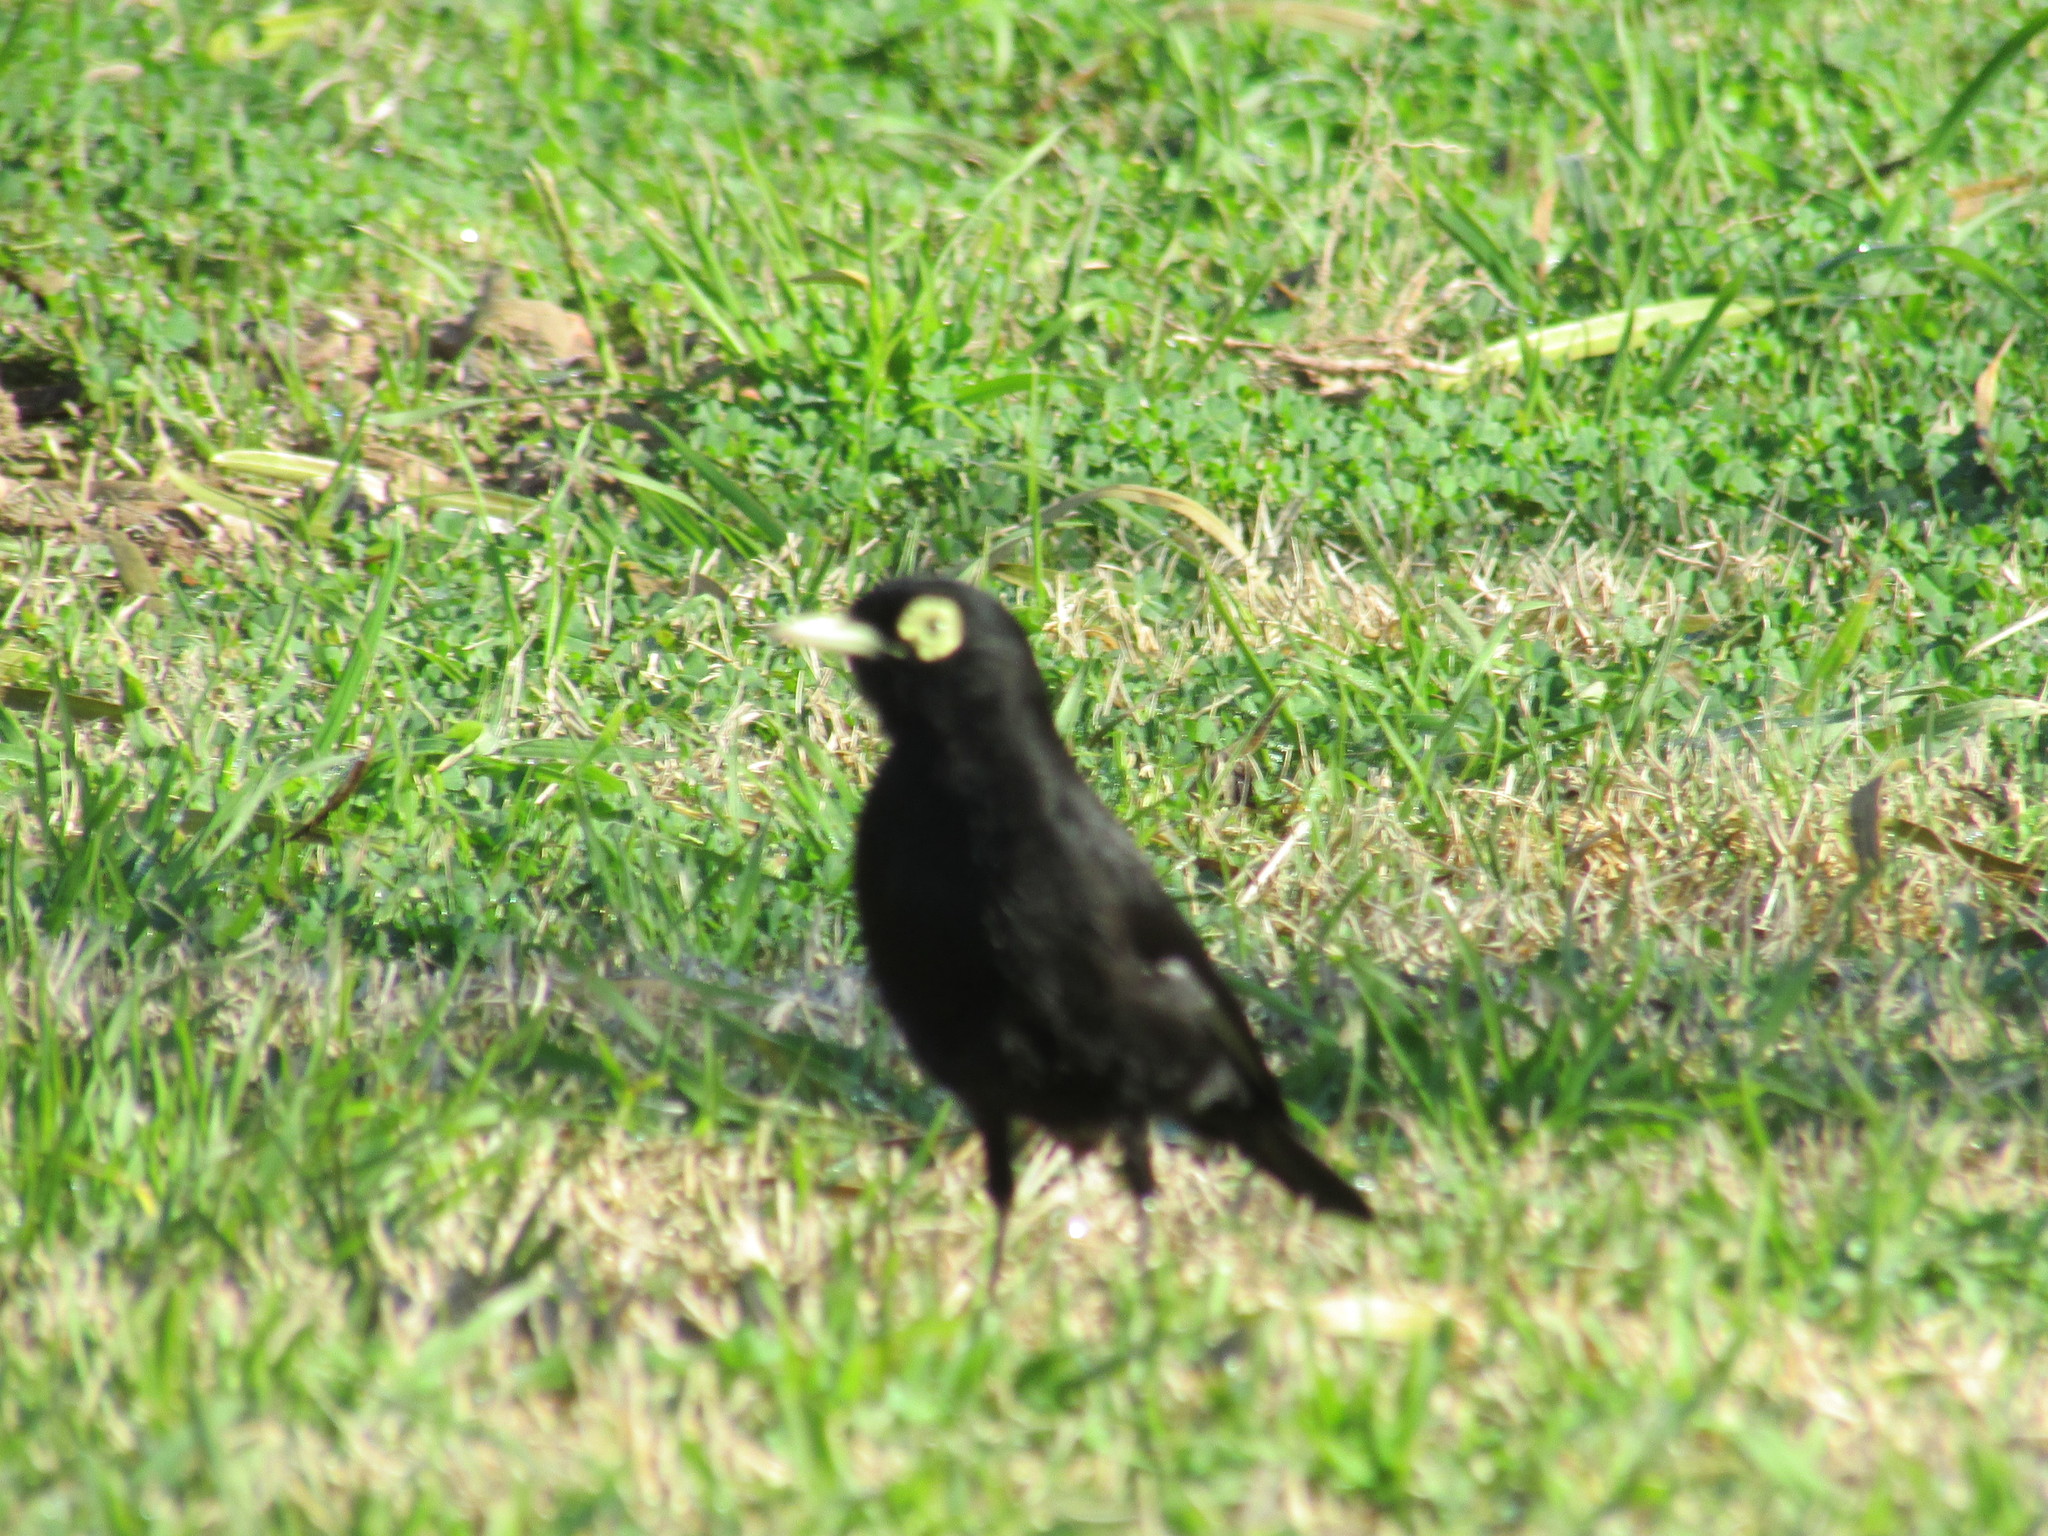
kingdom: Animalia
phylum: Chordata
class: Aves
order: Passeriformes
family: Tyrannidae
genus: Hymenops
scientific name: Hymenops perspicillatus
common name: Spectacled tyrant
